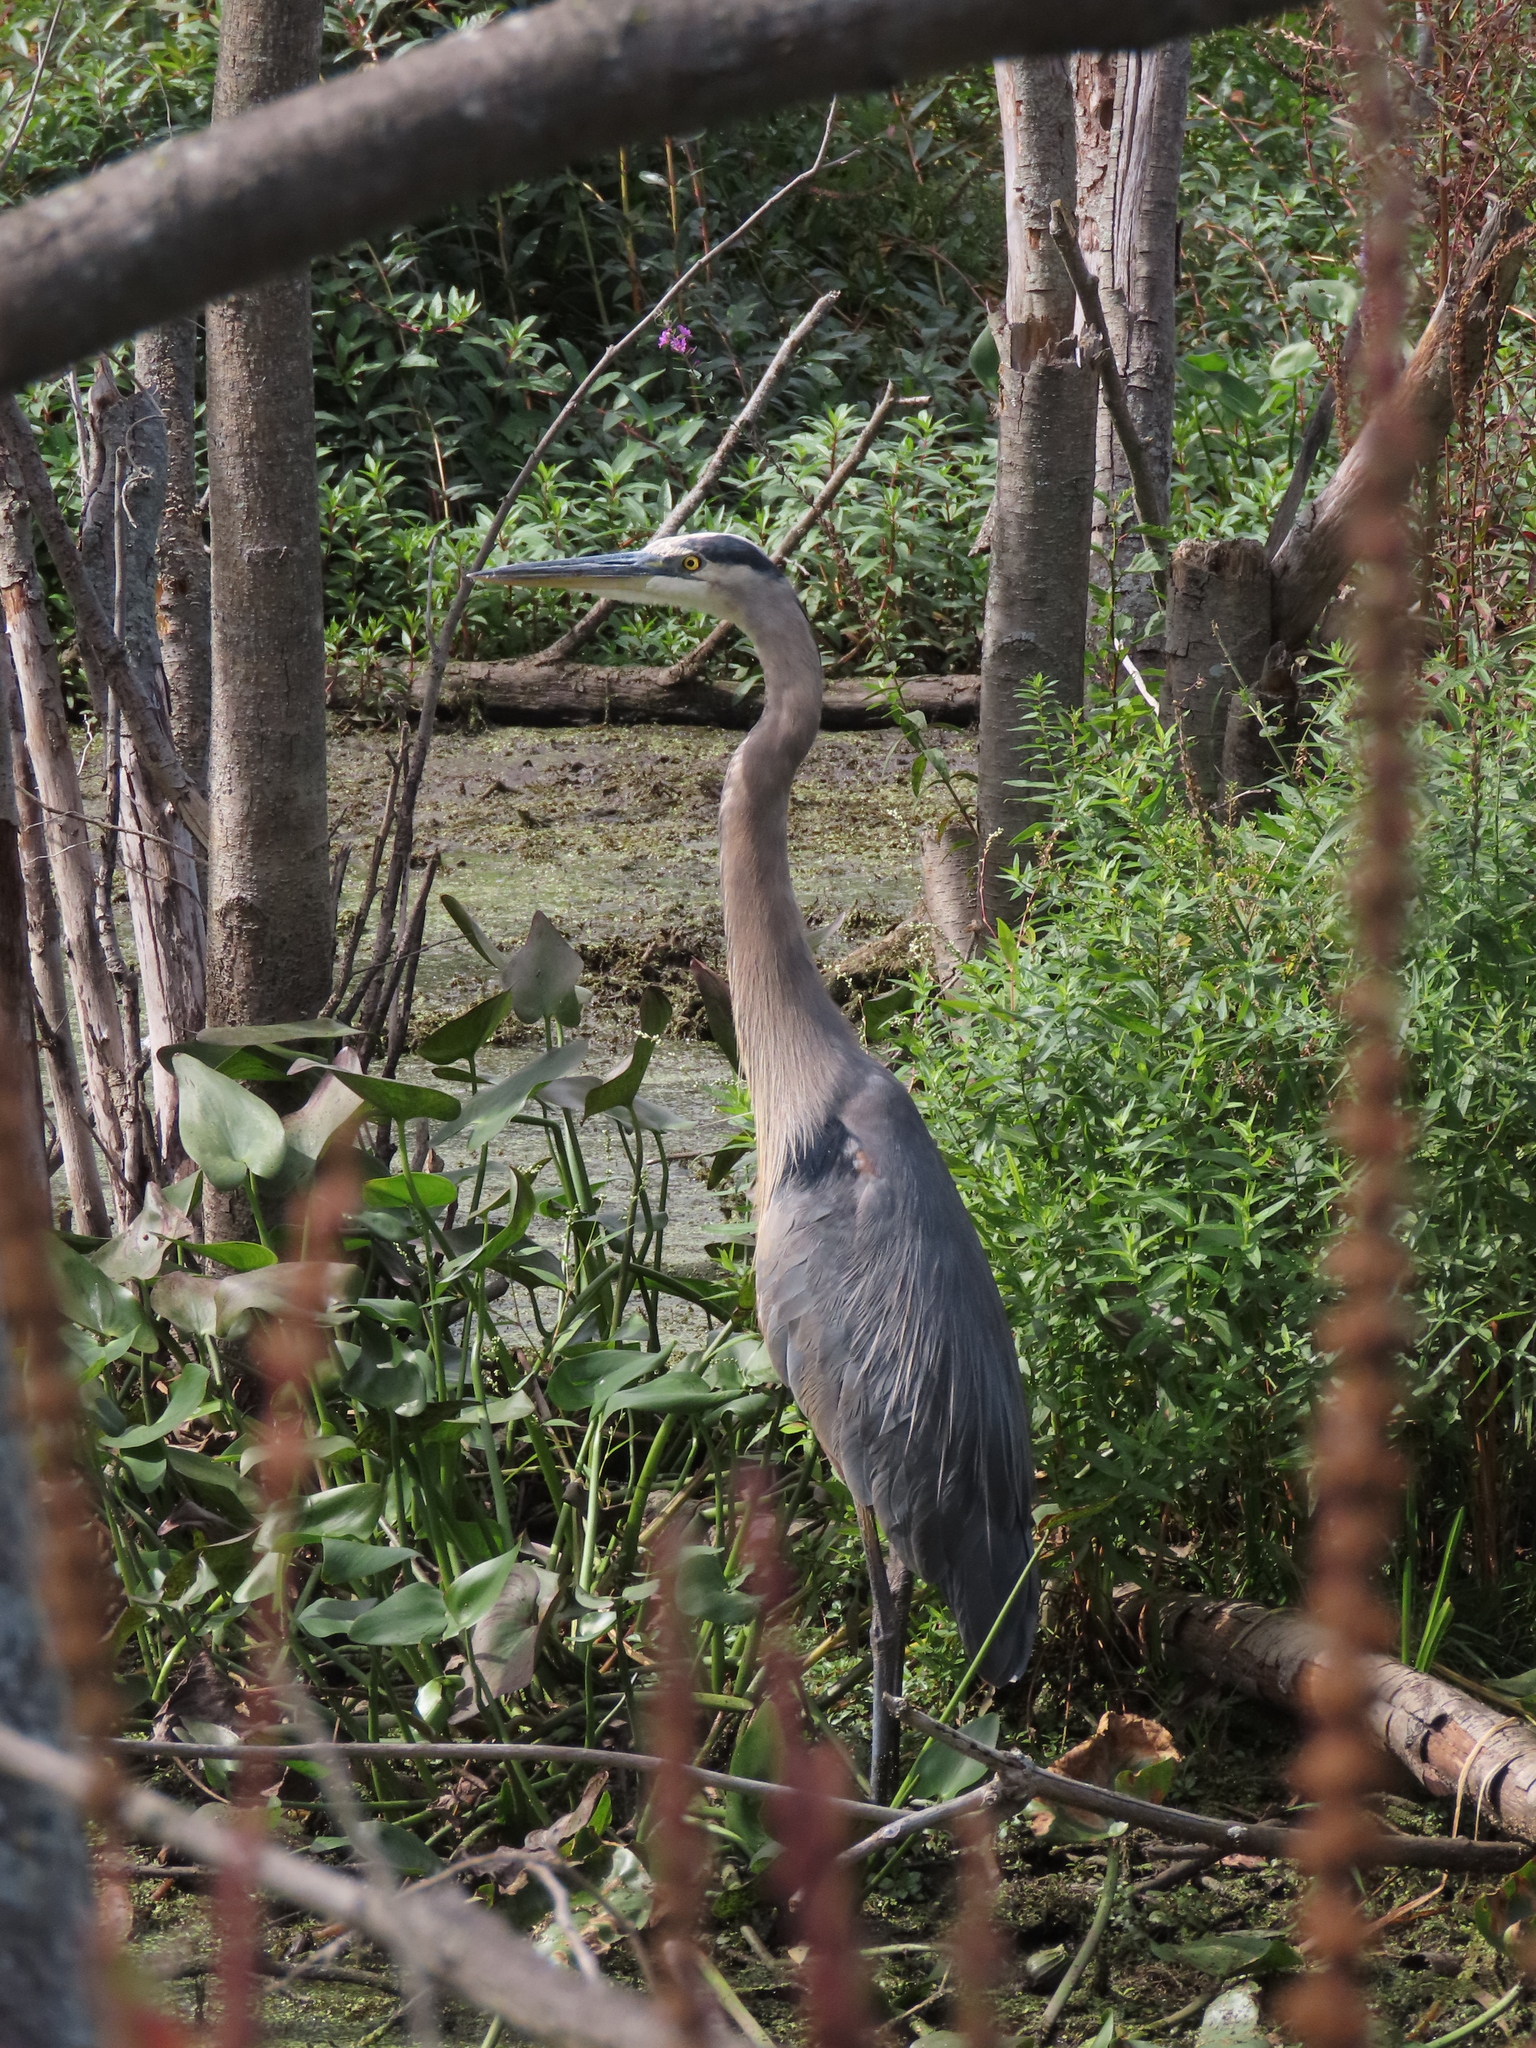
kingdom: Animalia
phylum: Chordata
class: Aves
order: Pelecaniformes
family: Ardeidae
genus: Ardea
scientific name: Ardea herodias
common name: Great blue heron
